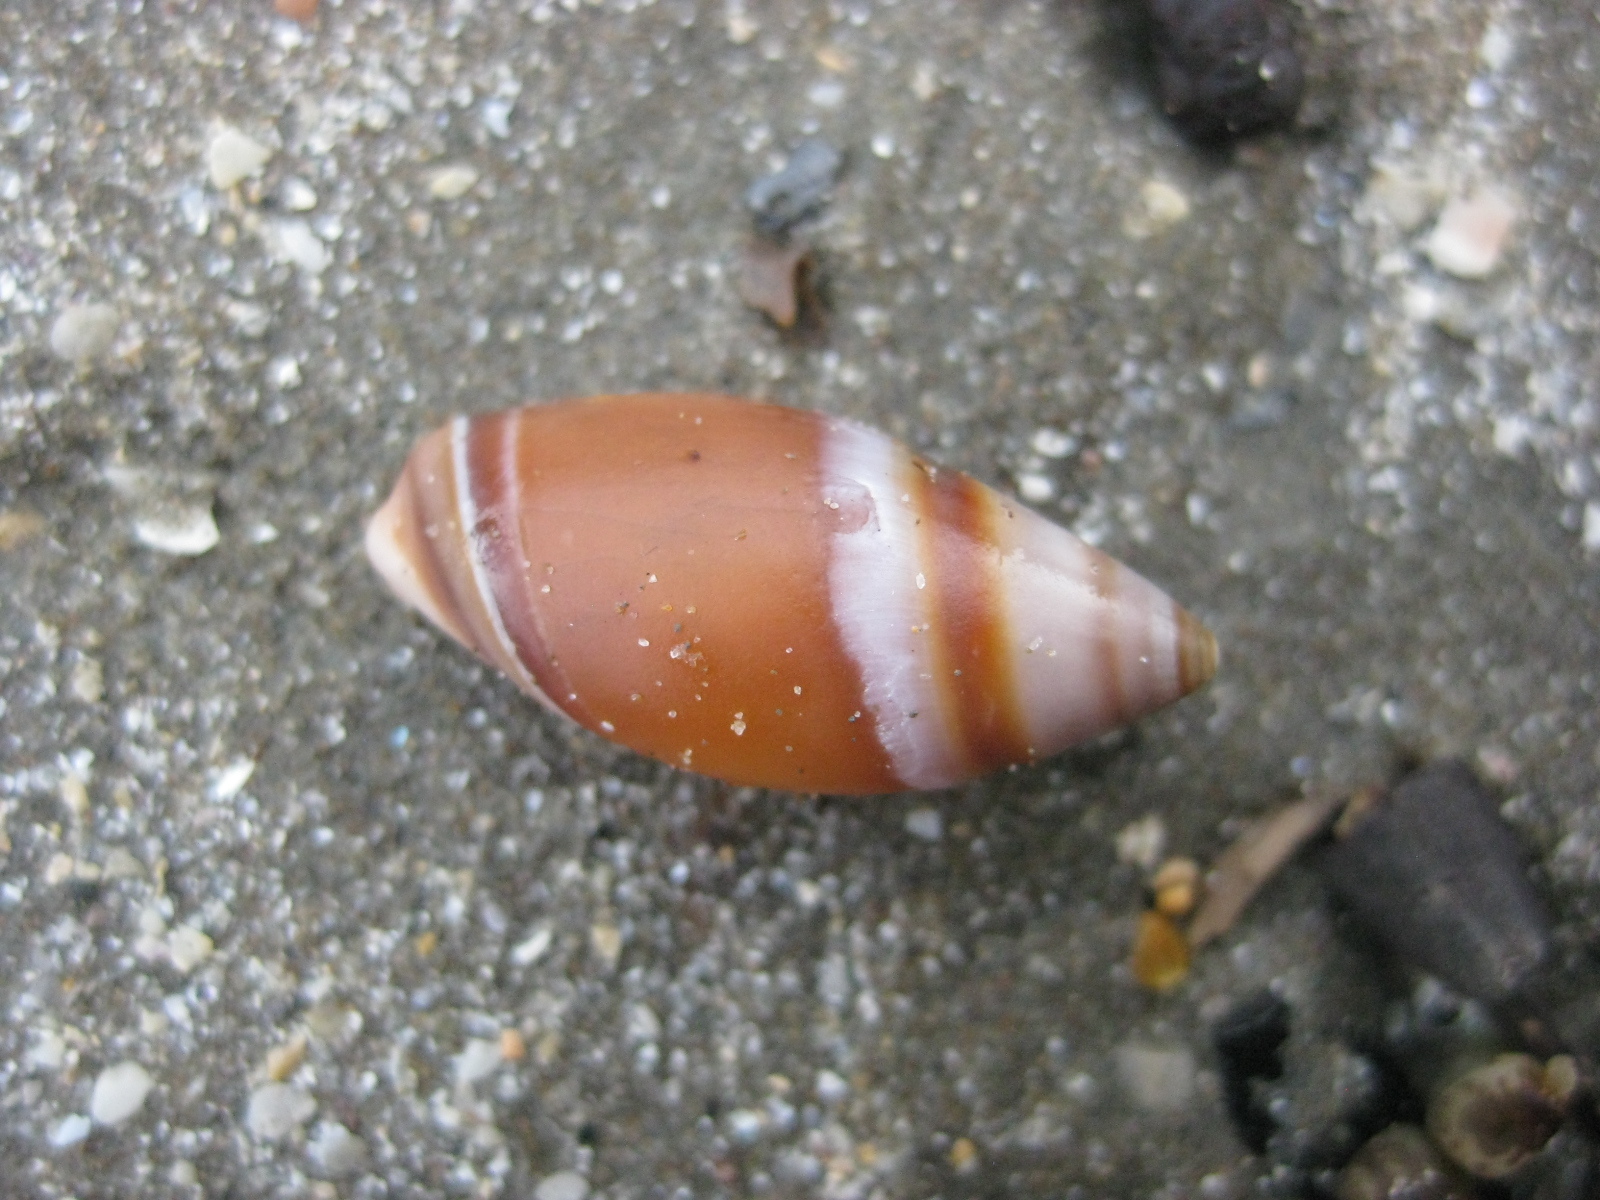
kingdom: Animalia
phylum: Mollusca
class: Gastropoda
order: Neogastropoda
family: Ancillariidae
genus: Amalda
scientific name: Amalda australis
